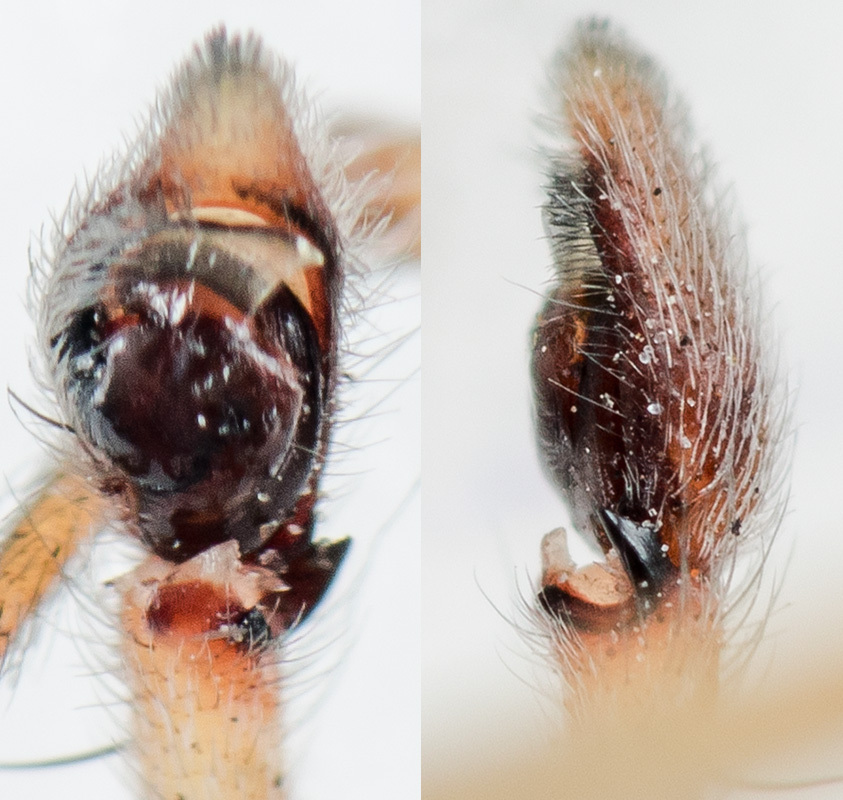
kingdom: Animalia
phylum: Arthropoda
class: Arachnida
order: Araneae
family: Philodromidae
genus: Philodromus
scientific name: Philodromus longipalpis
